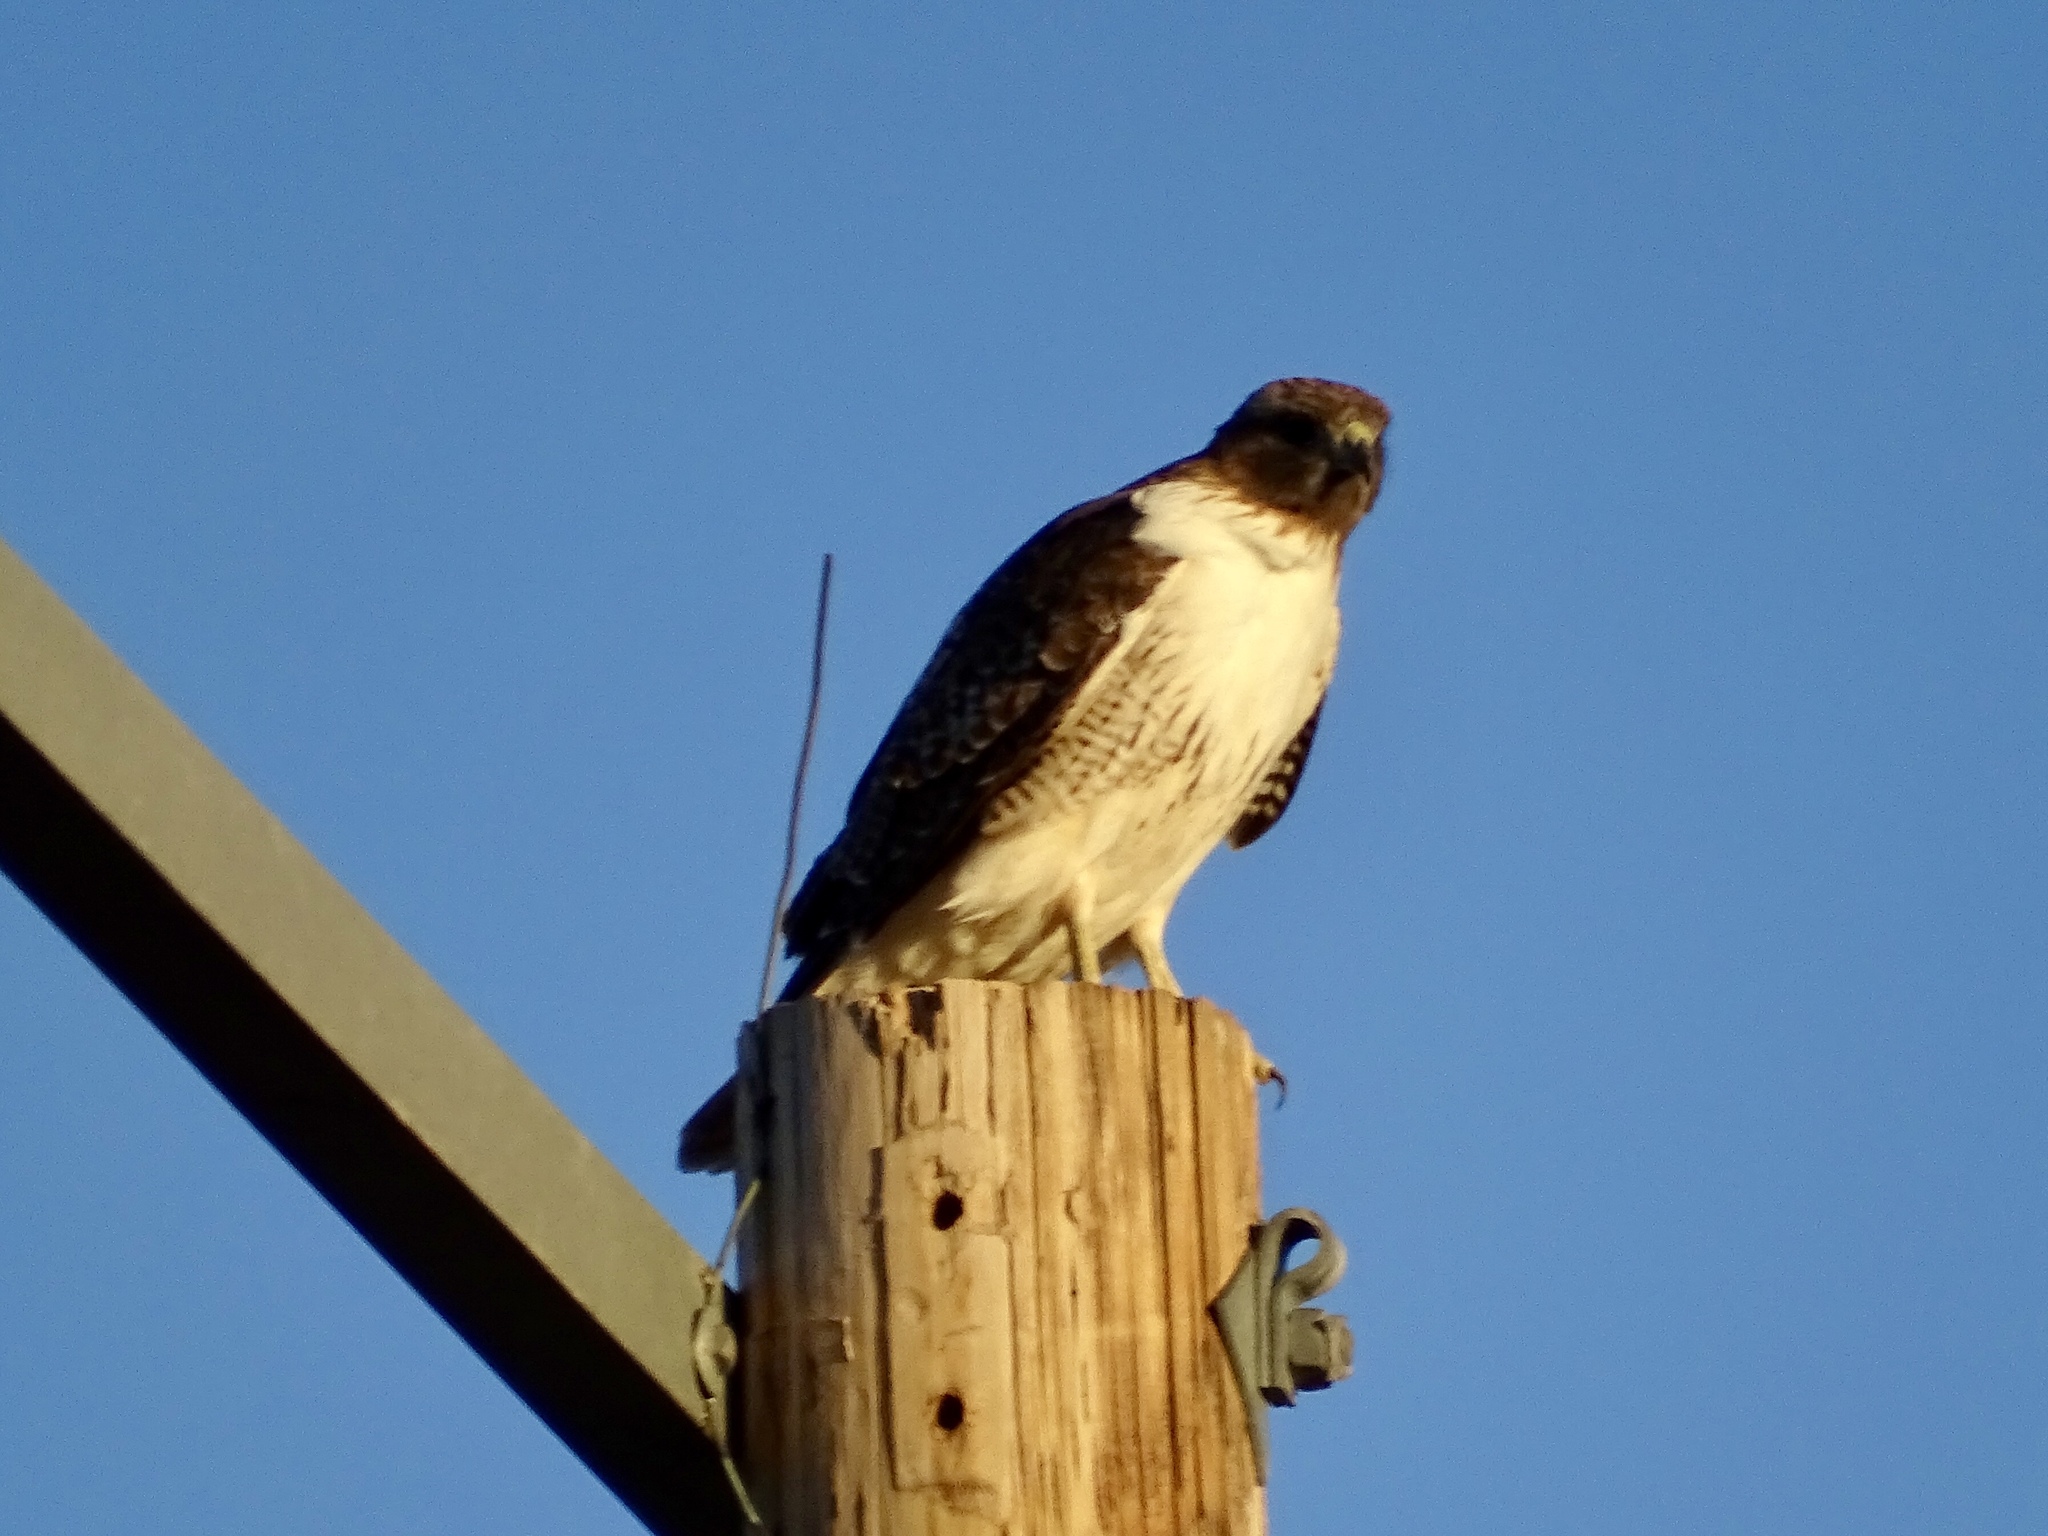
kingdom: Animalia
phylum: Chordata
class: Aves
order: Accipitriformes
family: Accipitridae
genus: Buteo
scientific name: Buteo jamaicensis
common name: Red-tailed hawk
